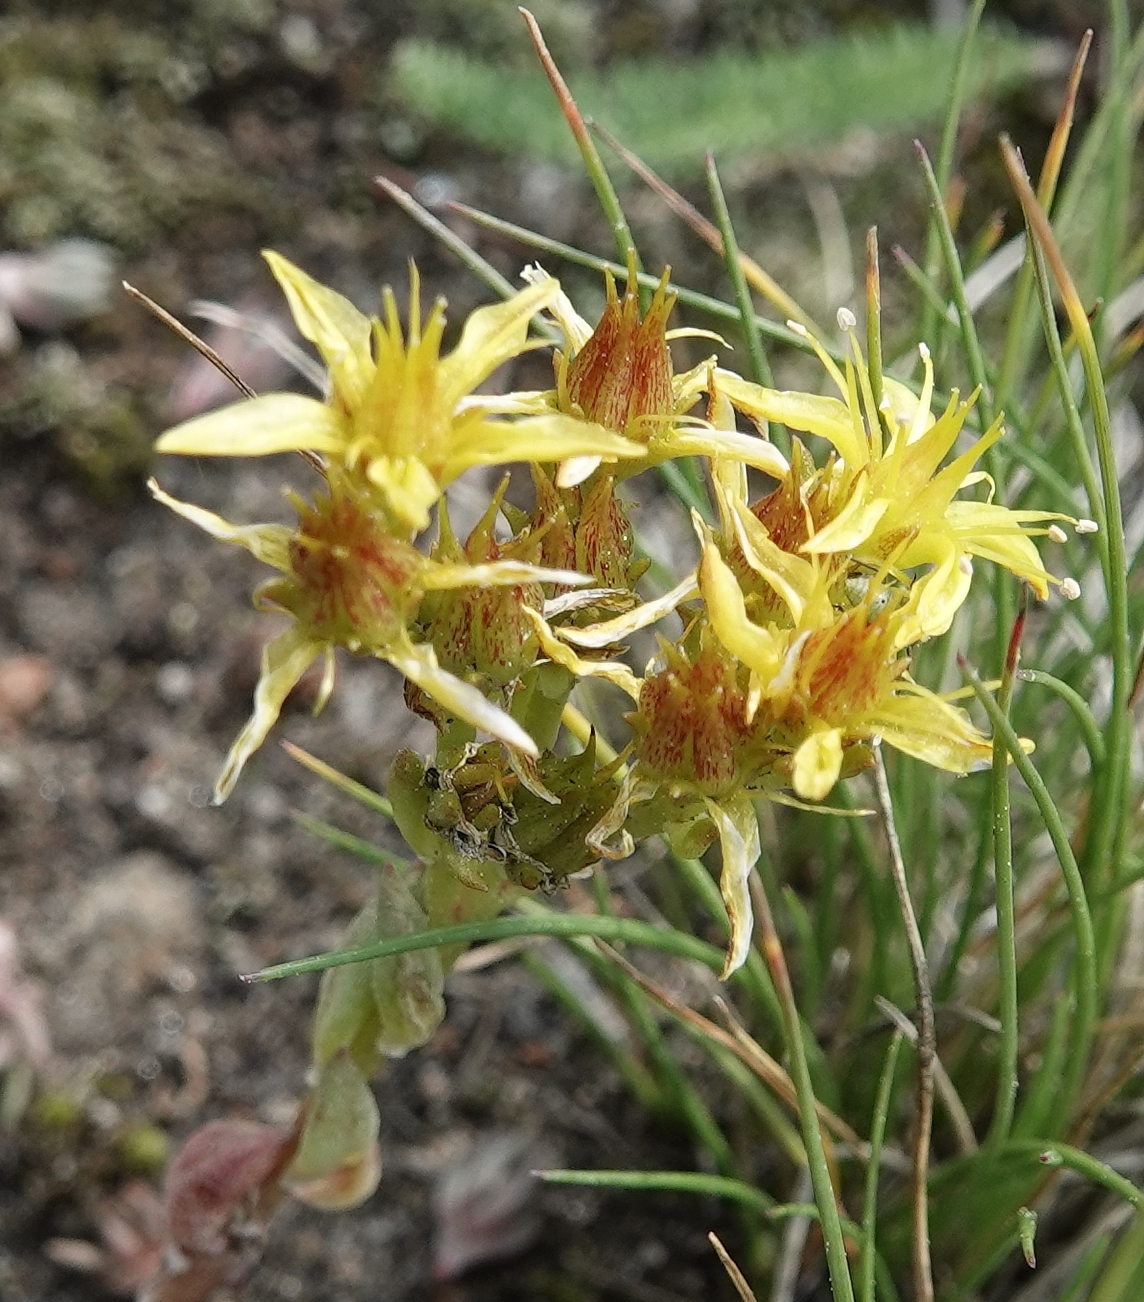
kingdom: Plantae
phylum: Tracheophyta
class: Magnoliopsida
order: Saxifragales
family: Crassulaceae
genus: Sedum
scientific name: Sedum lanceolatum
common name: Common stonecrop
